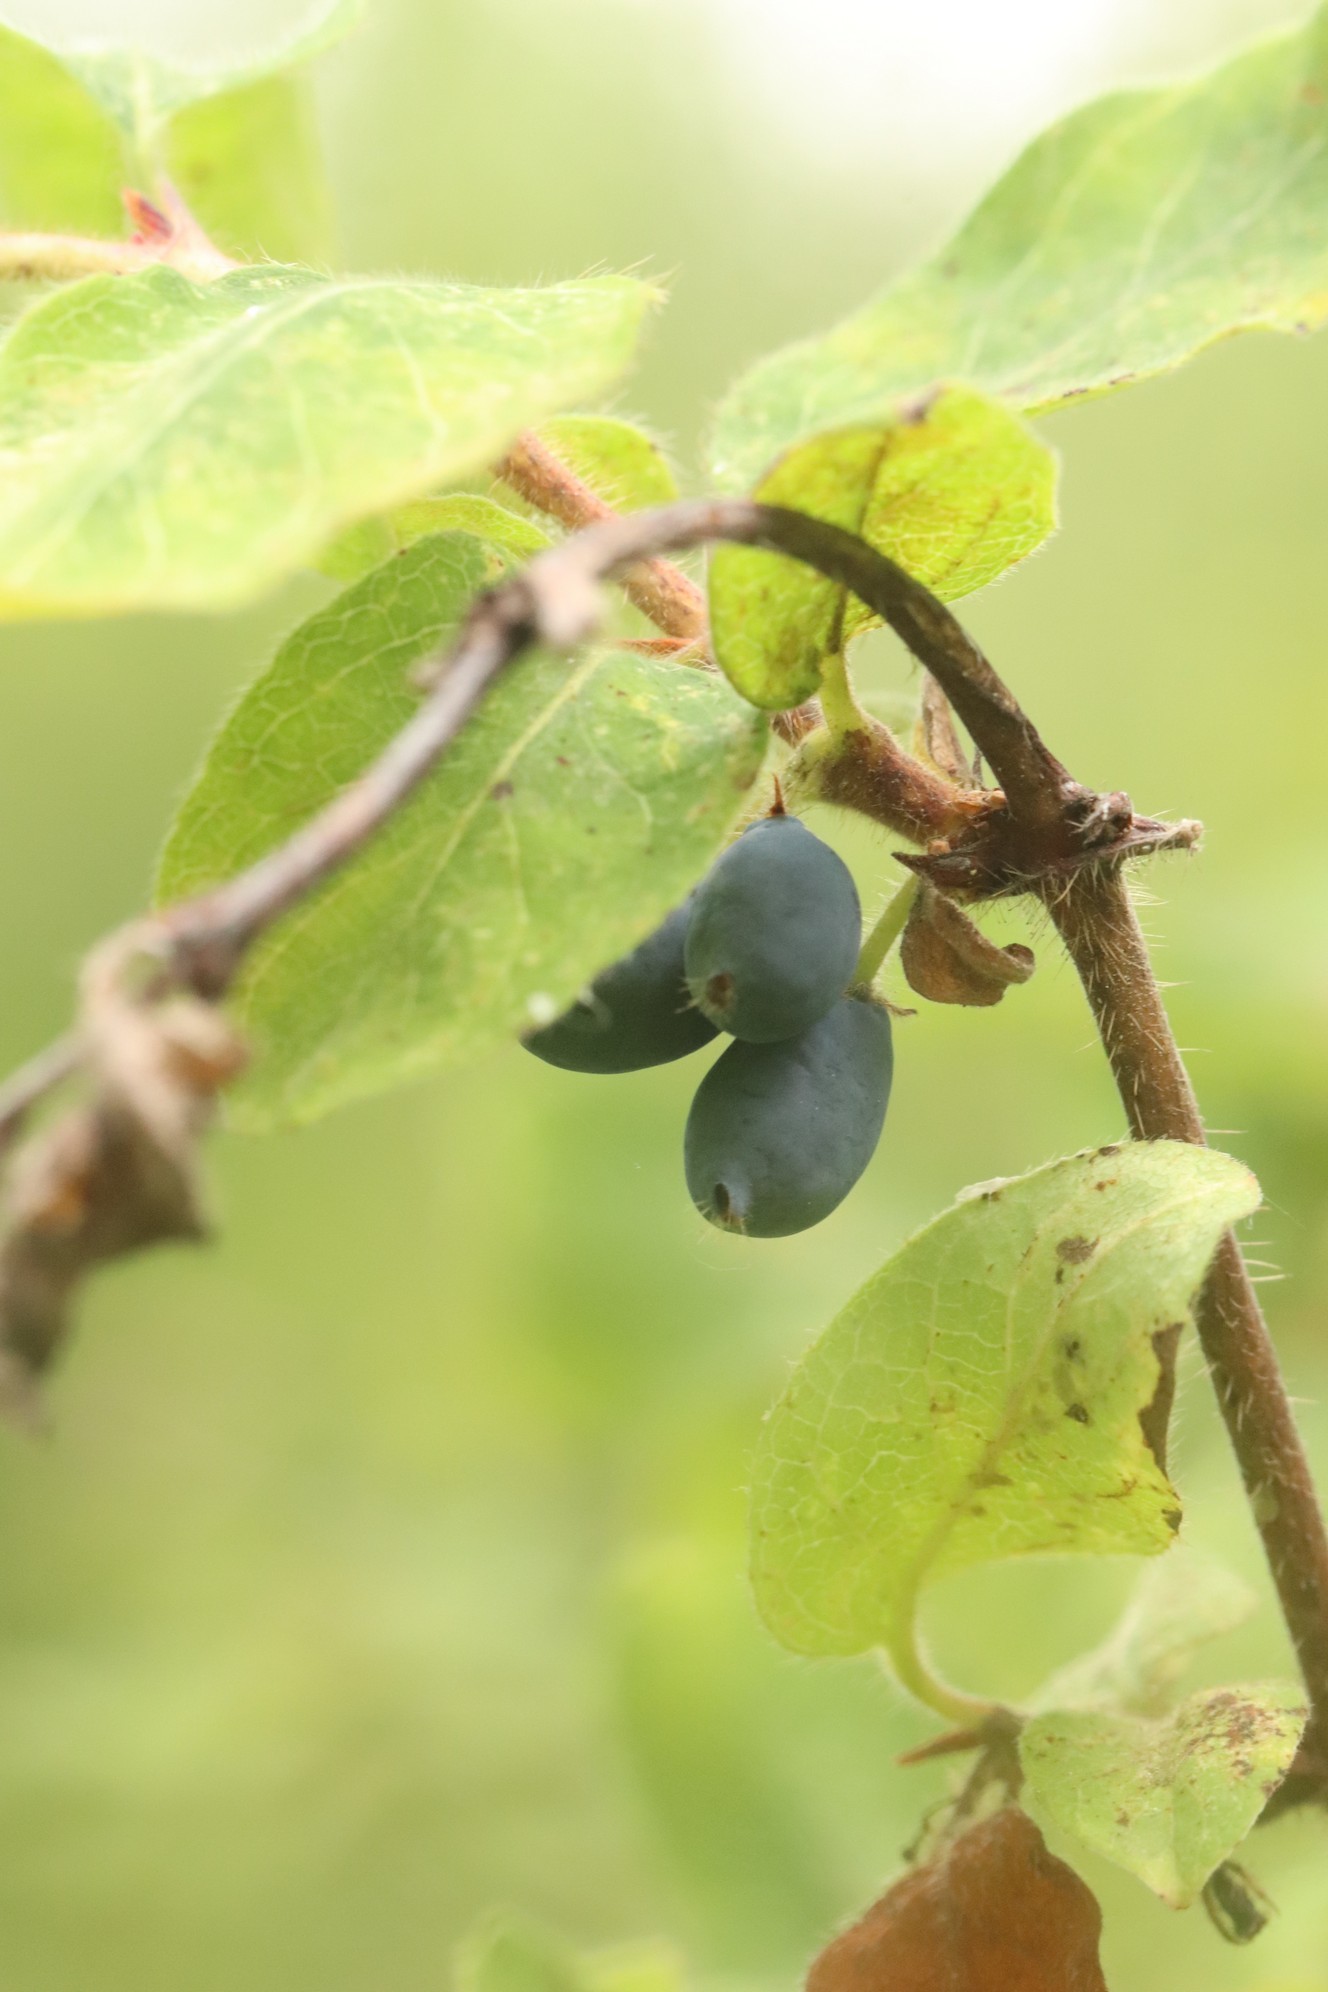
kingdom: Plantae
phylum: Tracheophyta
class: Magnoliopsida
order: Dipsacales
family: Caprifoliaceae
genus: Lonicera
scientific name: Lonicera caerulea
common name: Blue honeysuckle
